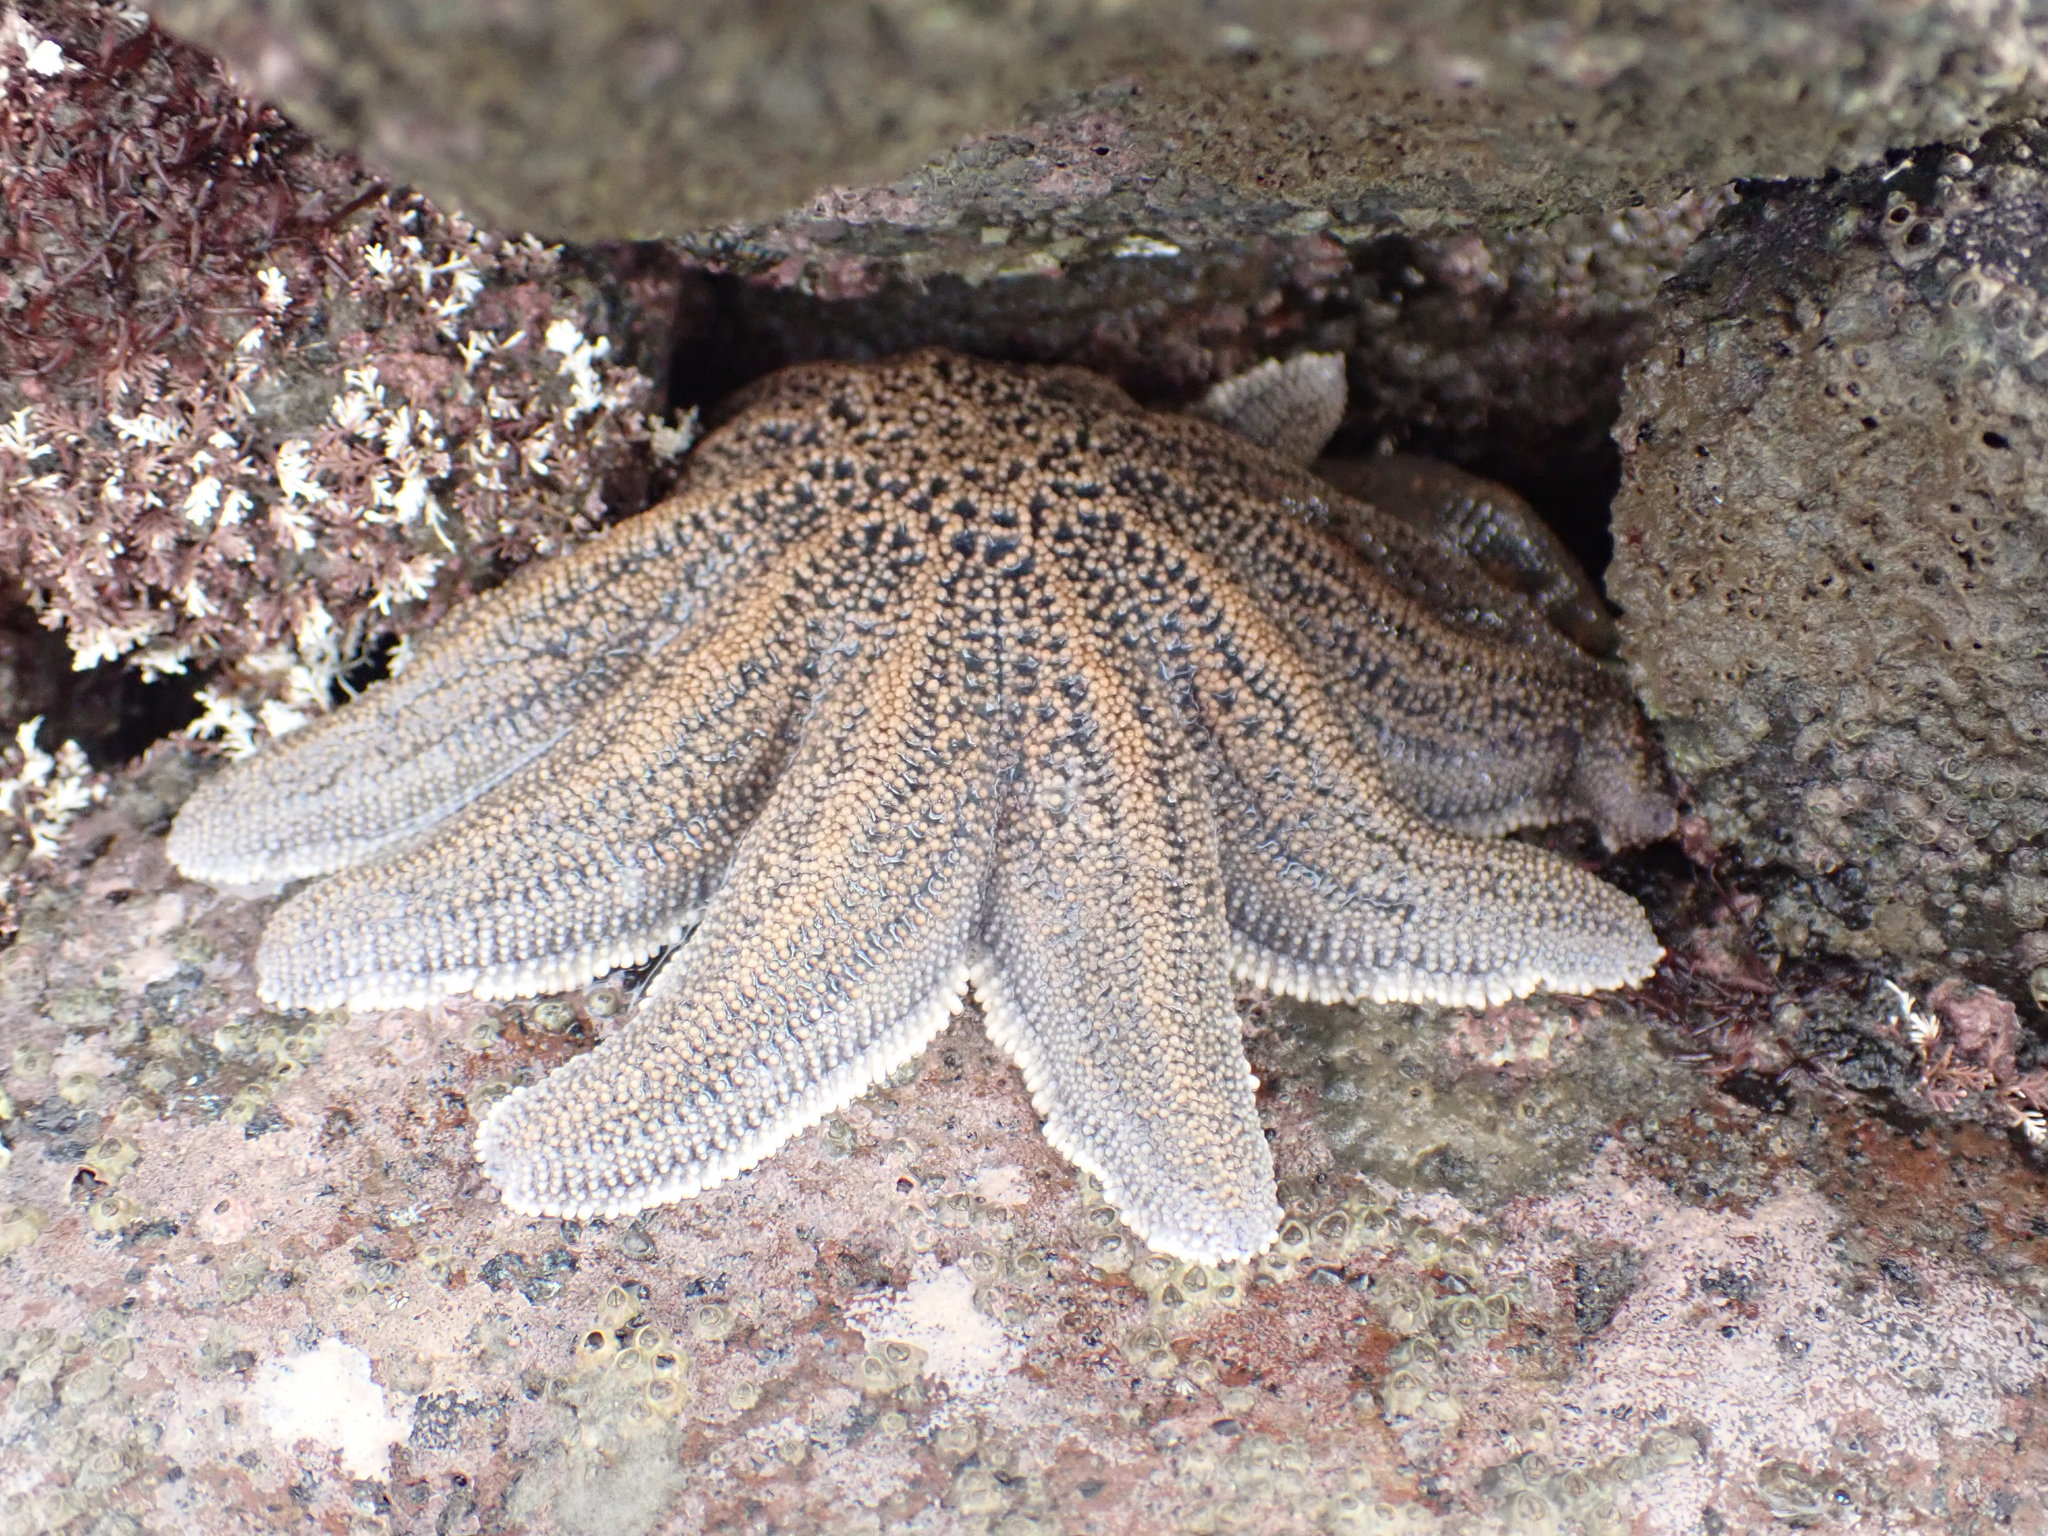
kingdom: Animalia
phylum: Echinodermata
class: Asteroidea
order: Forcipulatida
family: Stichasteridae
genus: Stichaster
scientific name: Stichaster australis
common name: Reef starfish
